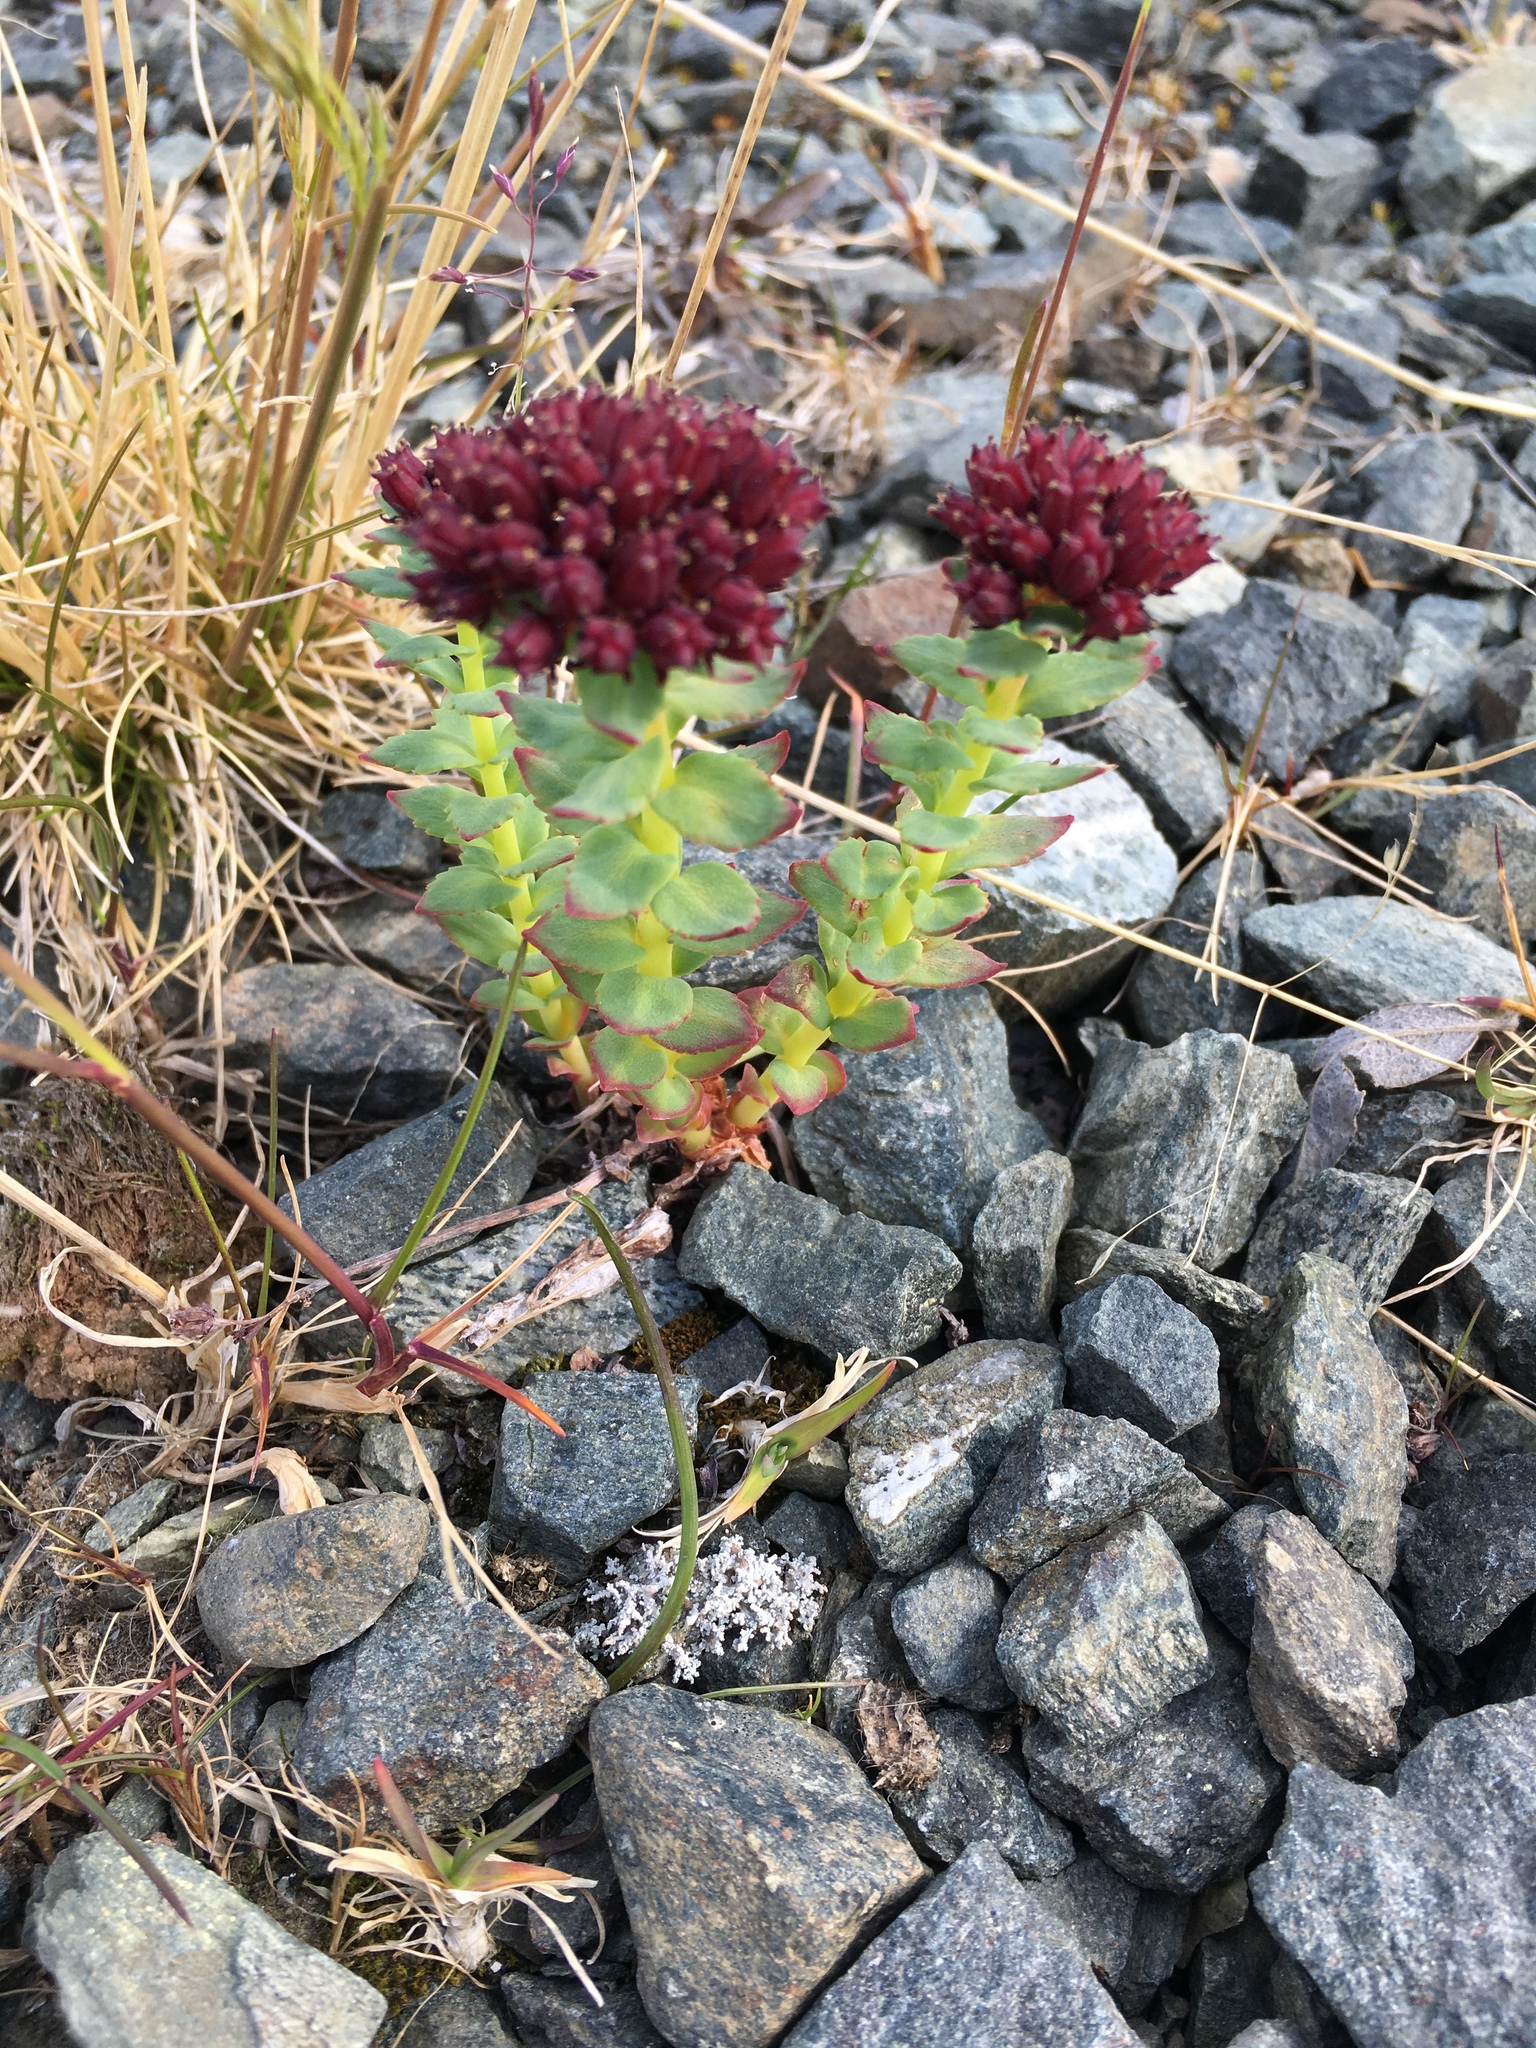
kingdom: Plantae
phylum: Tracheophyta
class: Magnoliopsida
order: Saxifragales
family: Crassulaceae
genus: Rhodiola
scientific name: Rhodiola integrifolia
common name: Western roseroot
